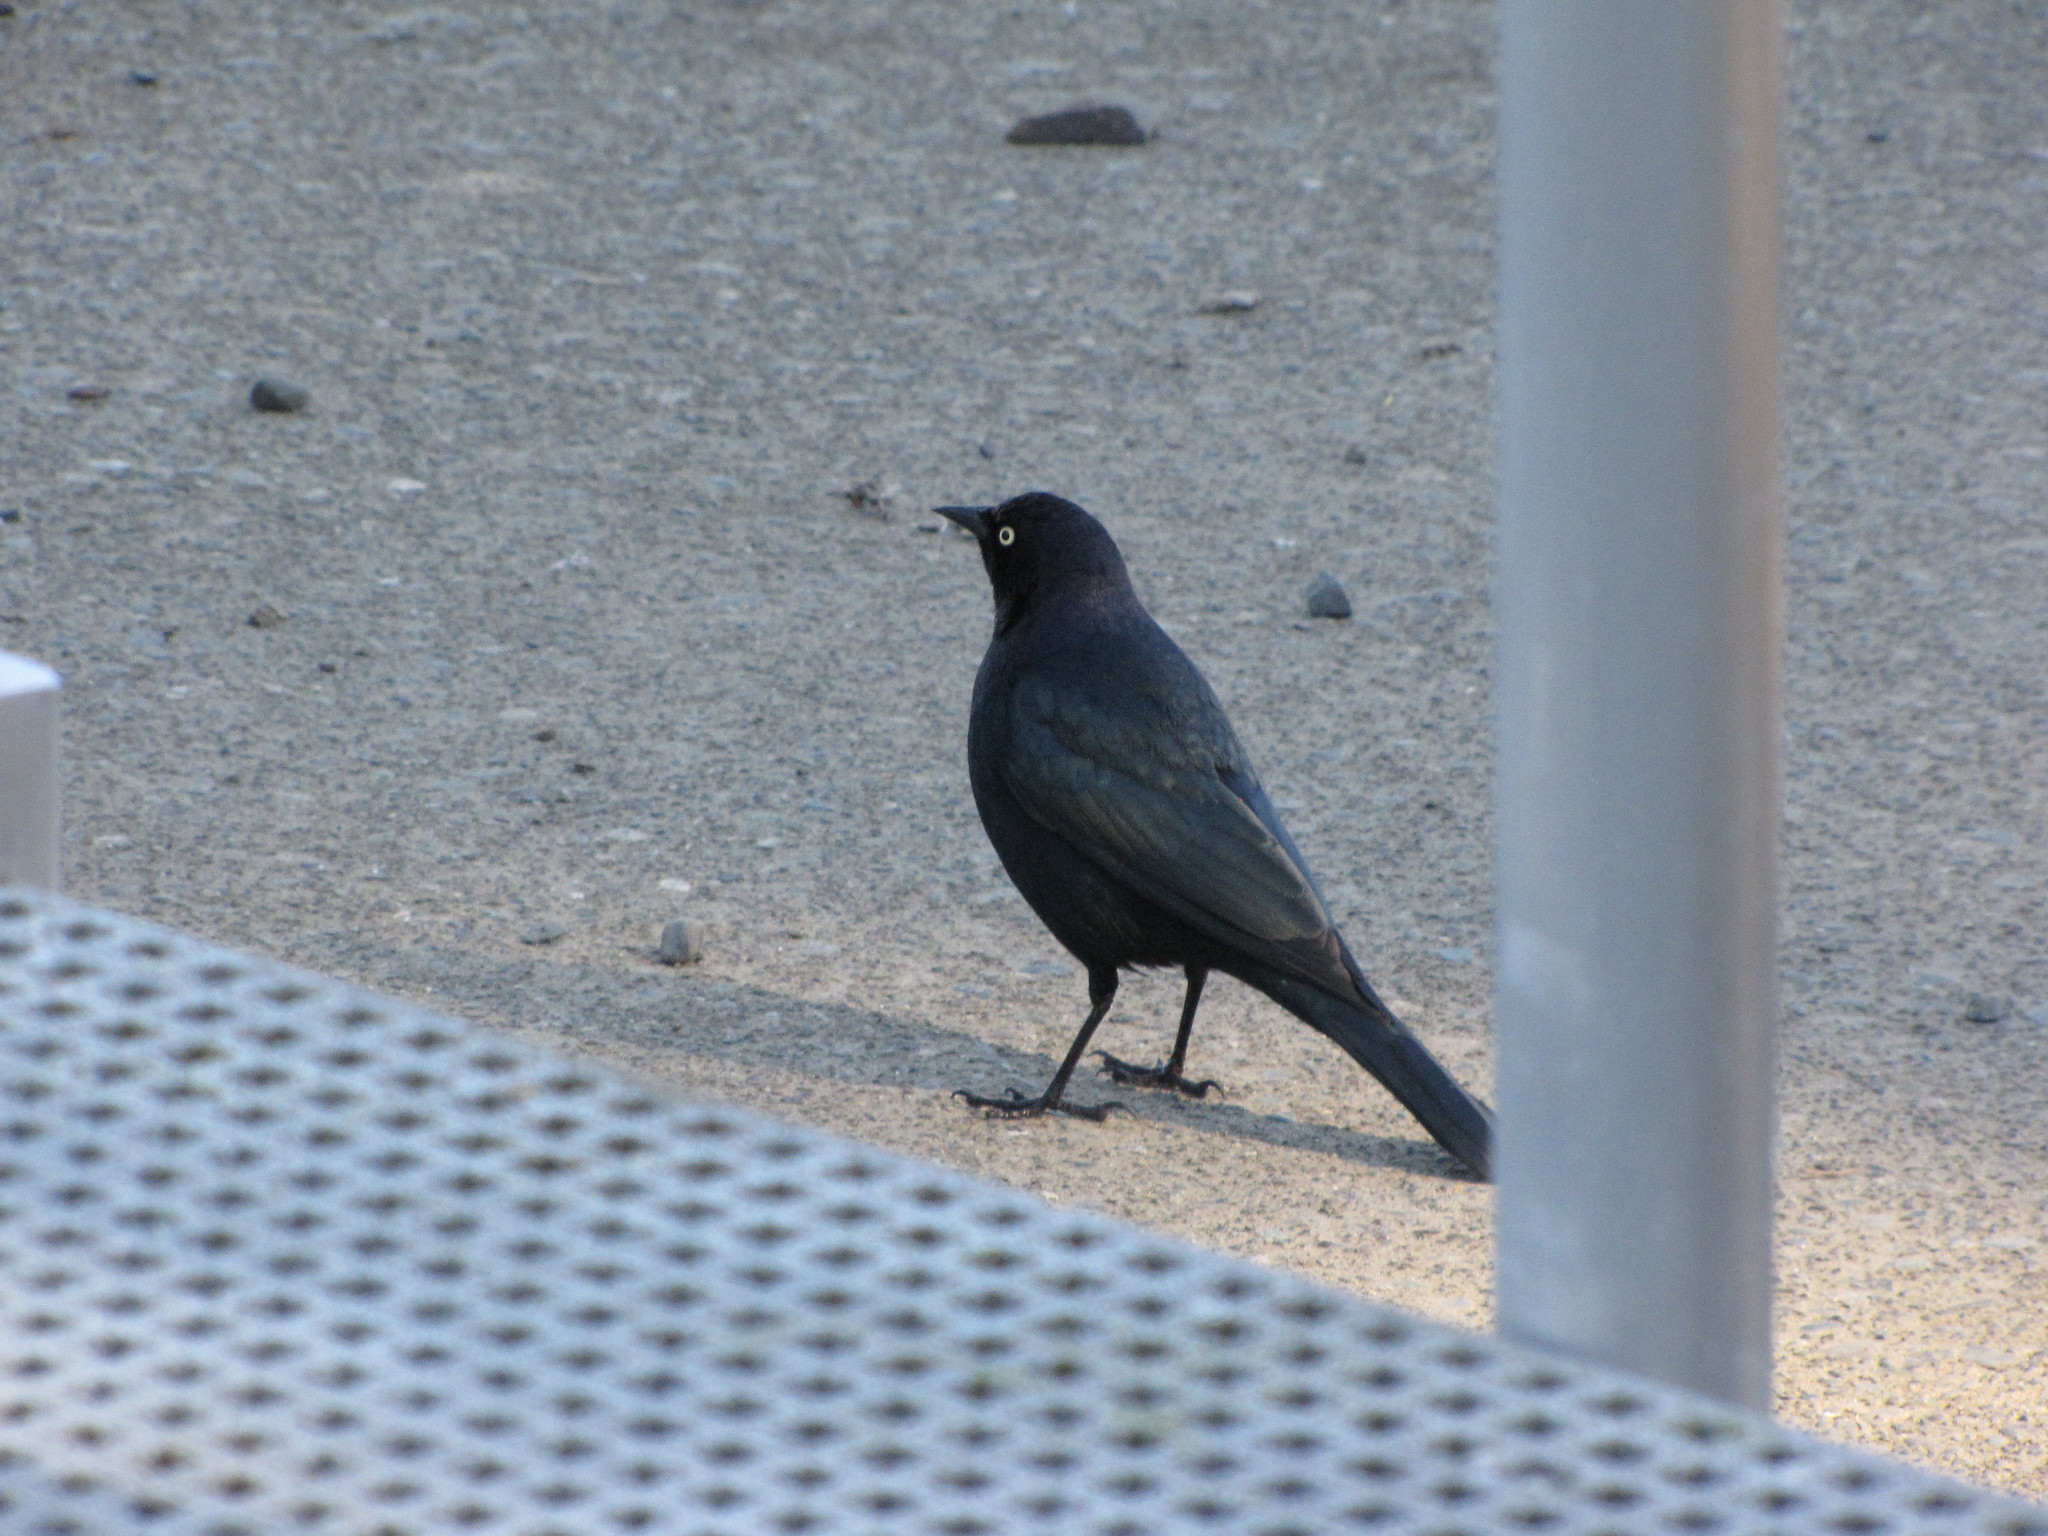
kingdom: Animalia
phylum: Chordata
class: Aves
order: Passeriformes
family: Icteridae
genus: Euphagus
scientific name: Euphagus cyanocephalus
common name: Brewer's blackbird
